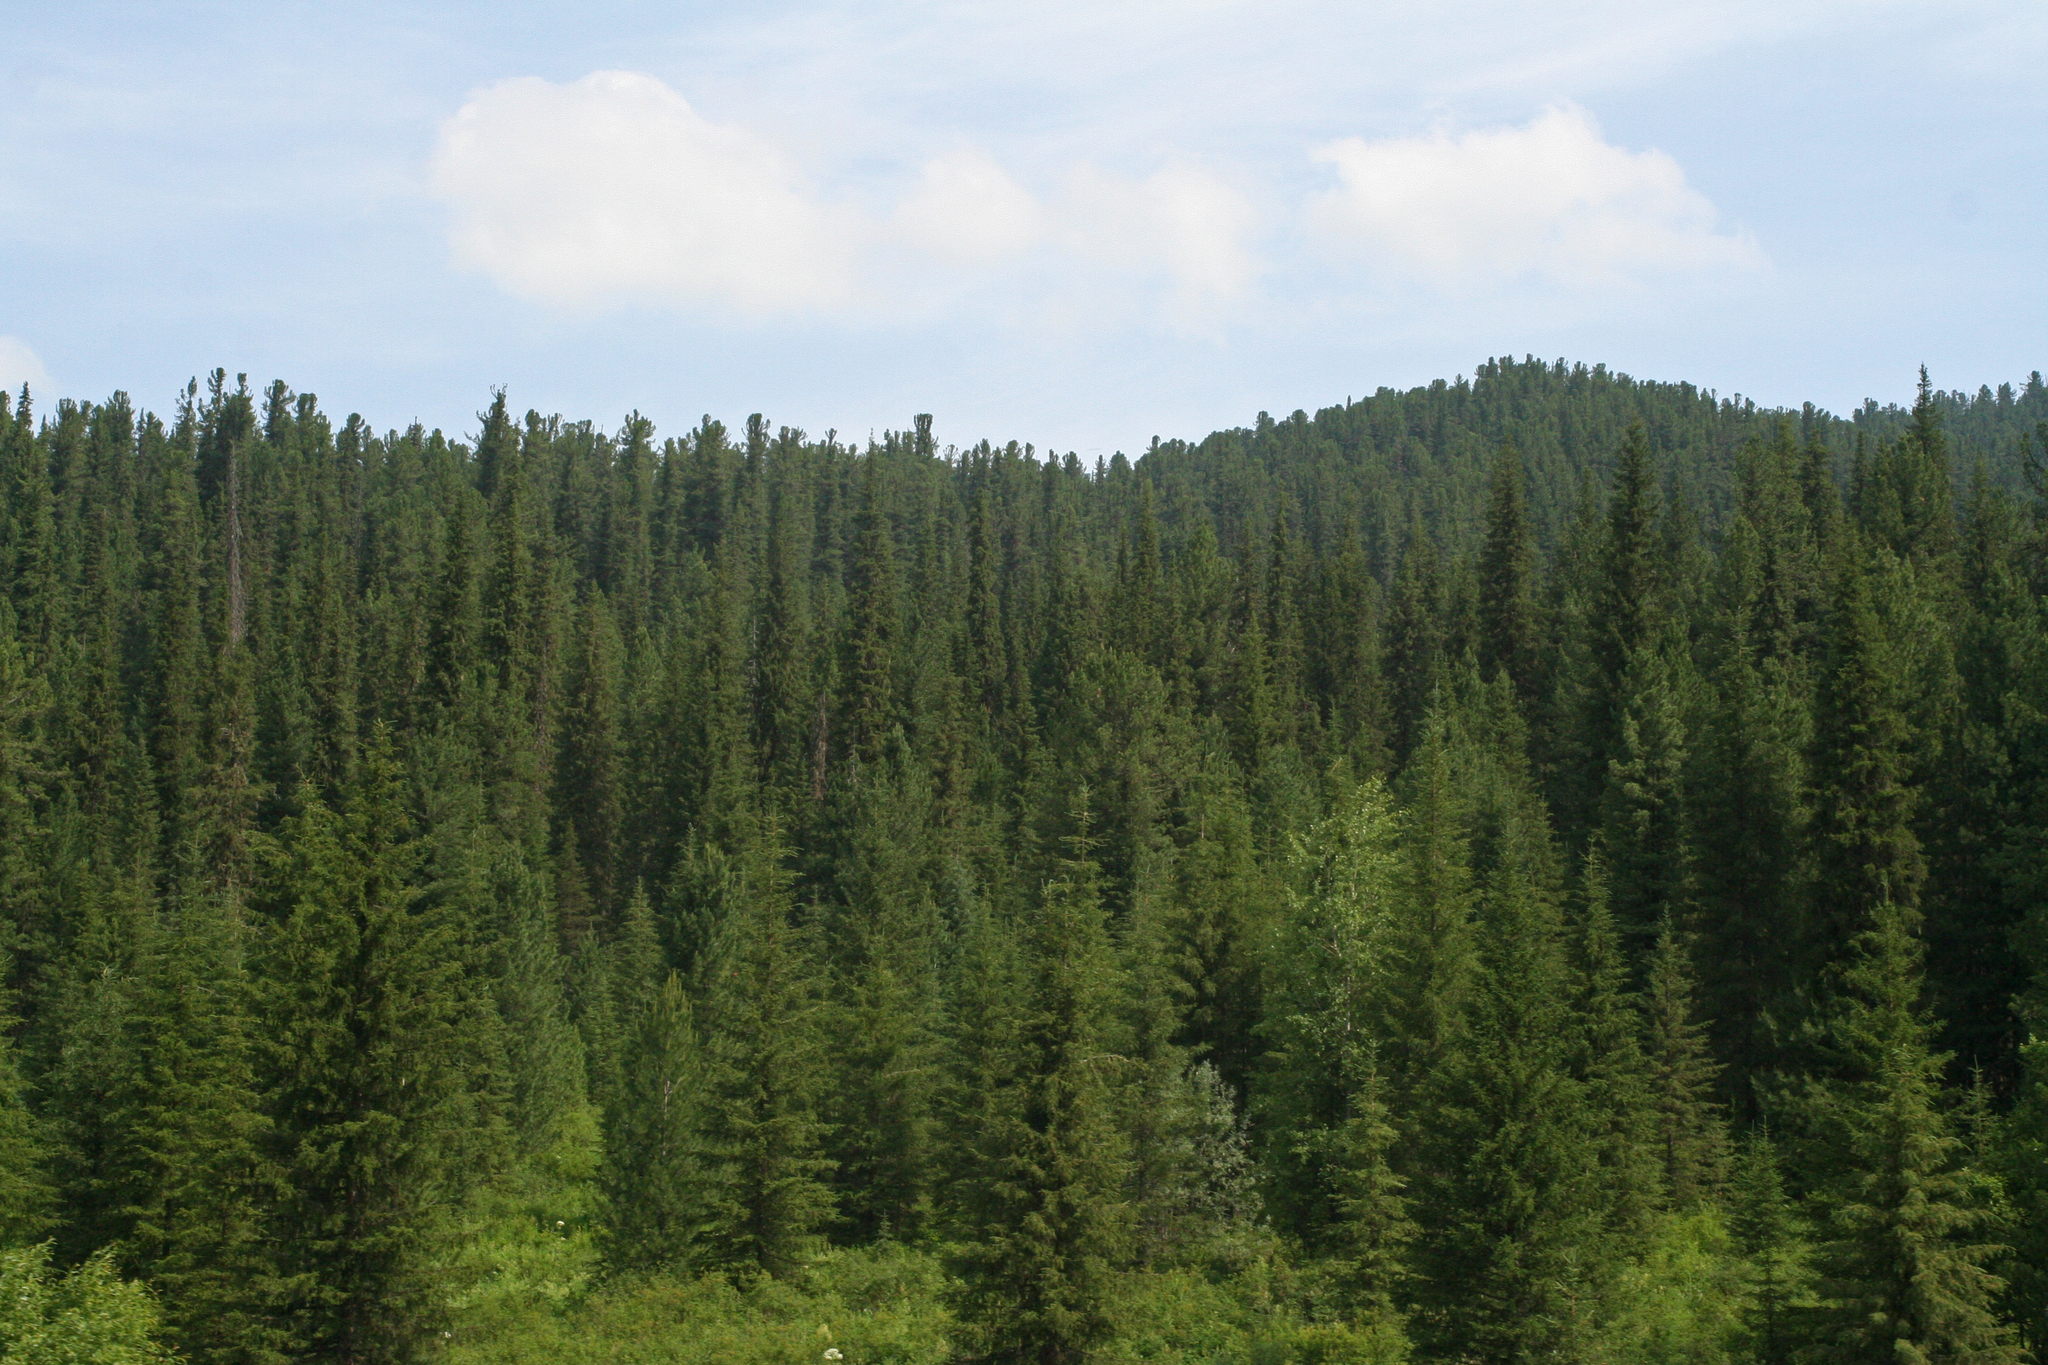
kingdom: Plantae
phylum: Tracheophyta
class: Pinopsida
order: Pinales
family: Pinaceae
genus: Abies
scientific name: Abies sibirica
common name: Siberian fir
